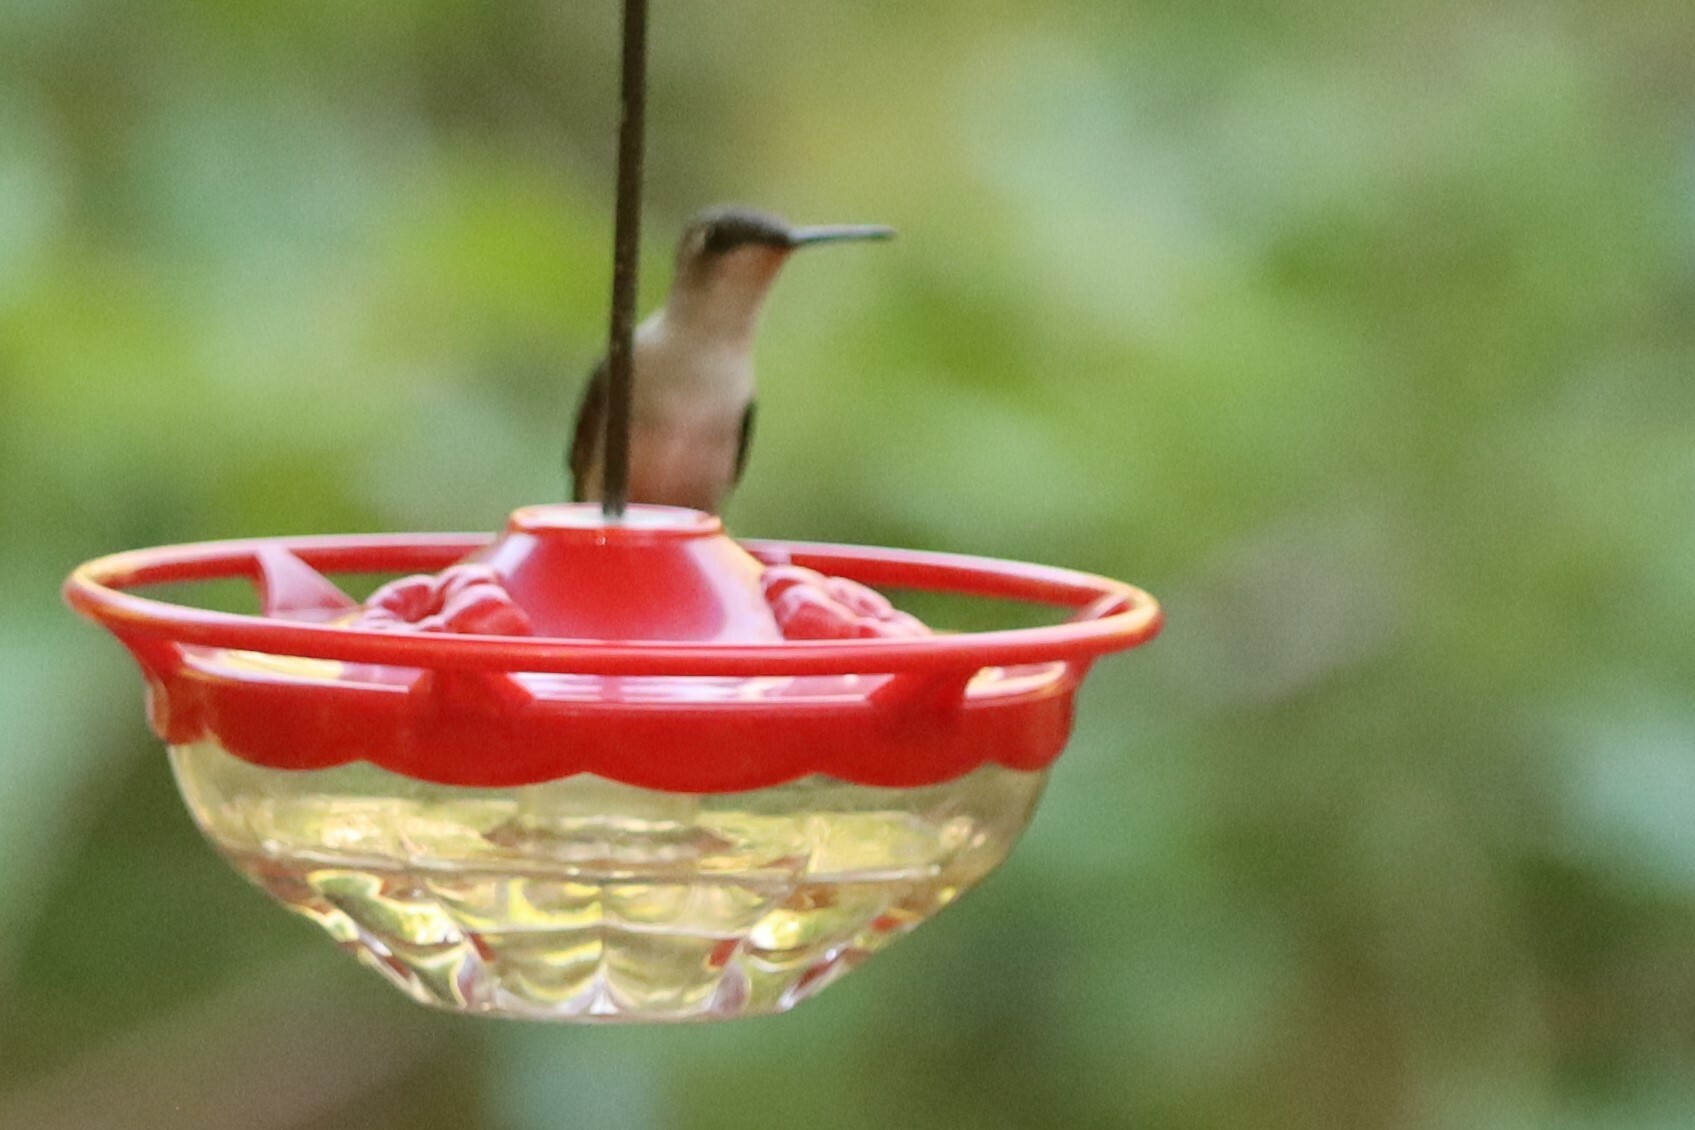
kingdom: Animalia
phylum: Chordata
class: Aves
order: Apodiformes
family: Trochilidae
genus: Archilochus
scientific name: Archilochus colubris
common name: Ruby-throated hummingbird
